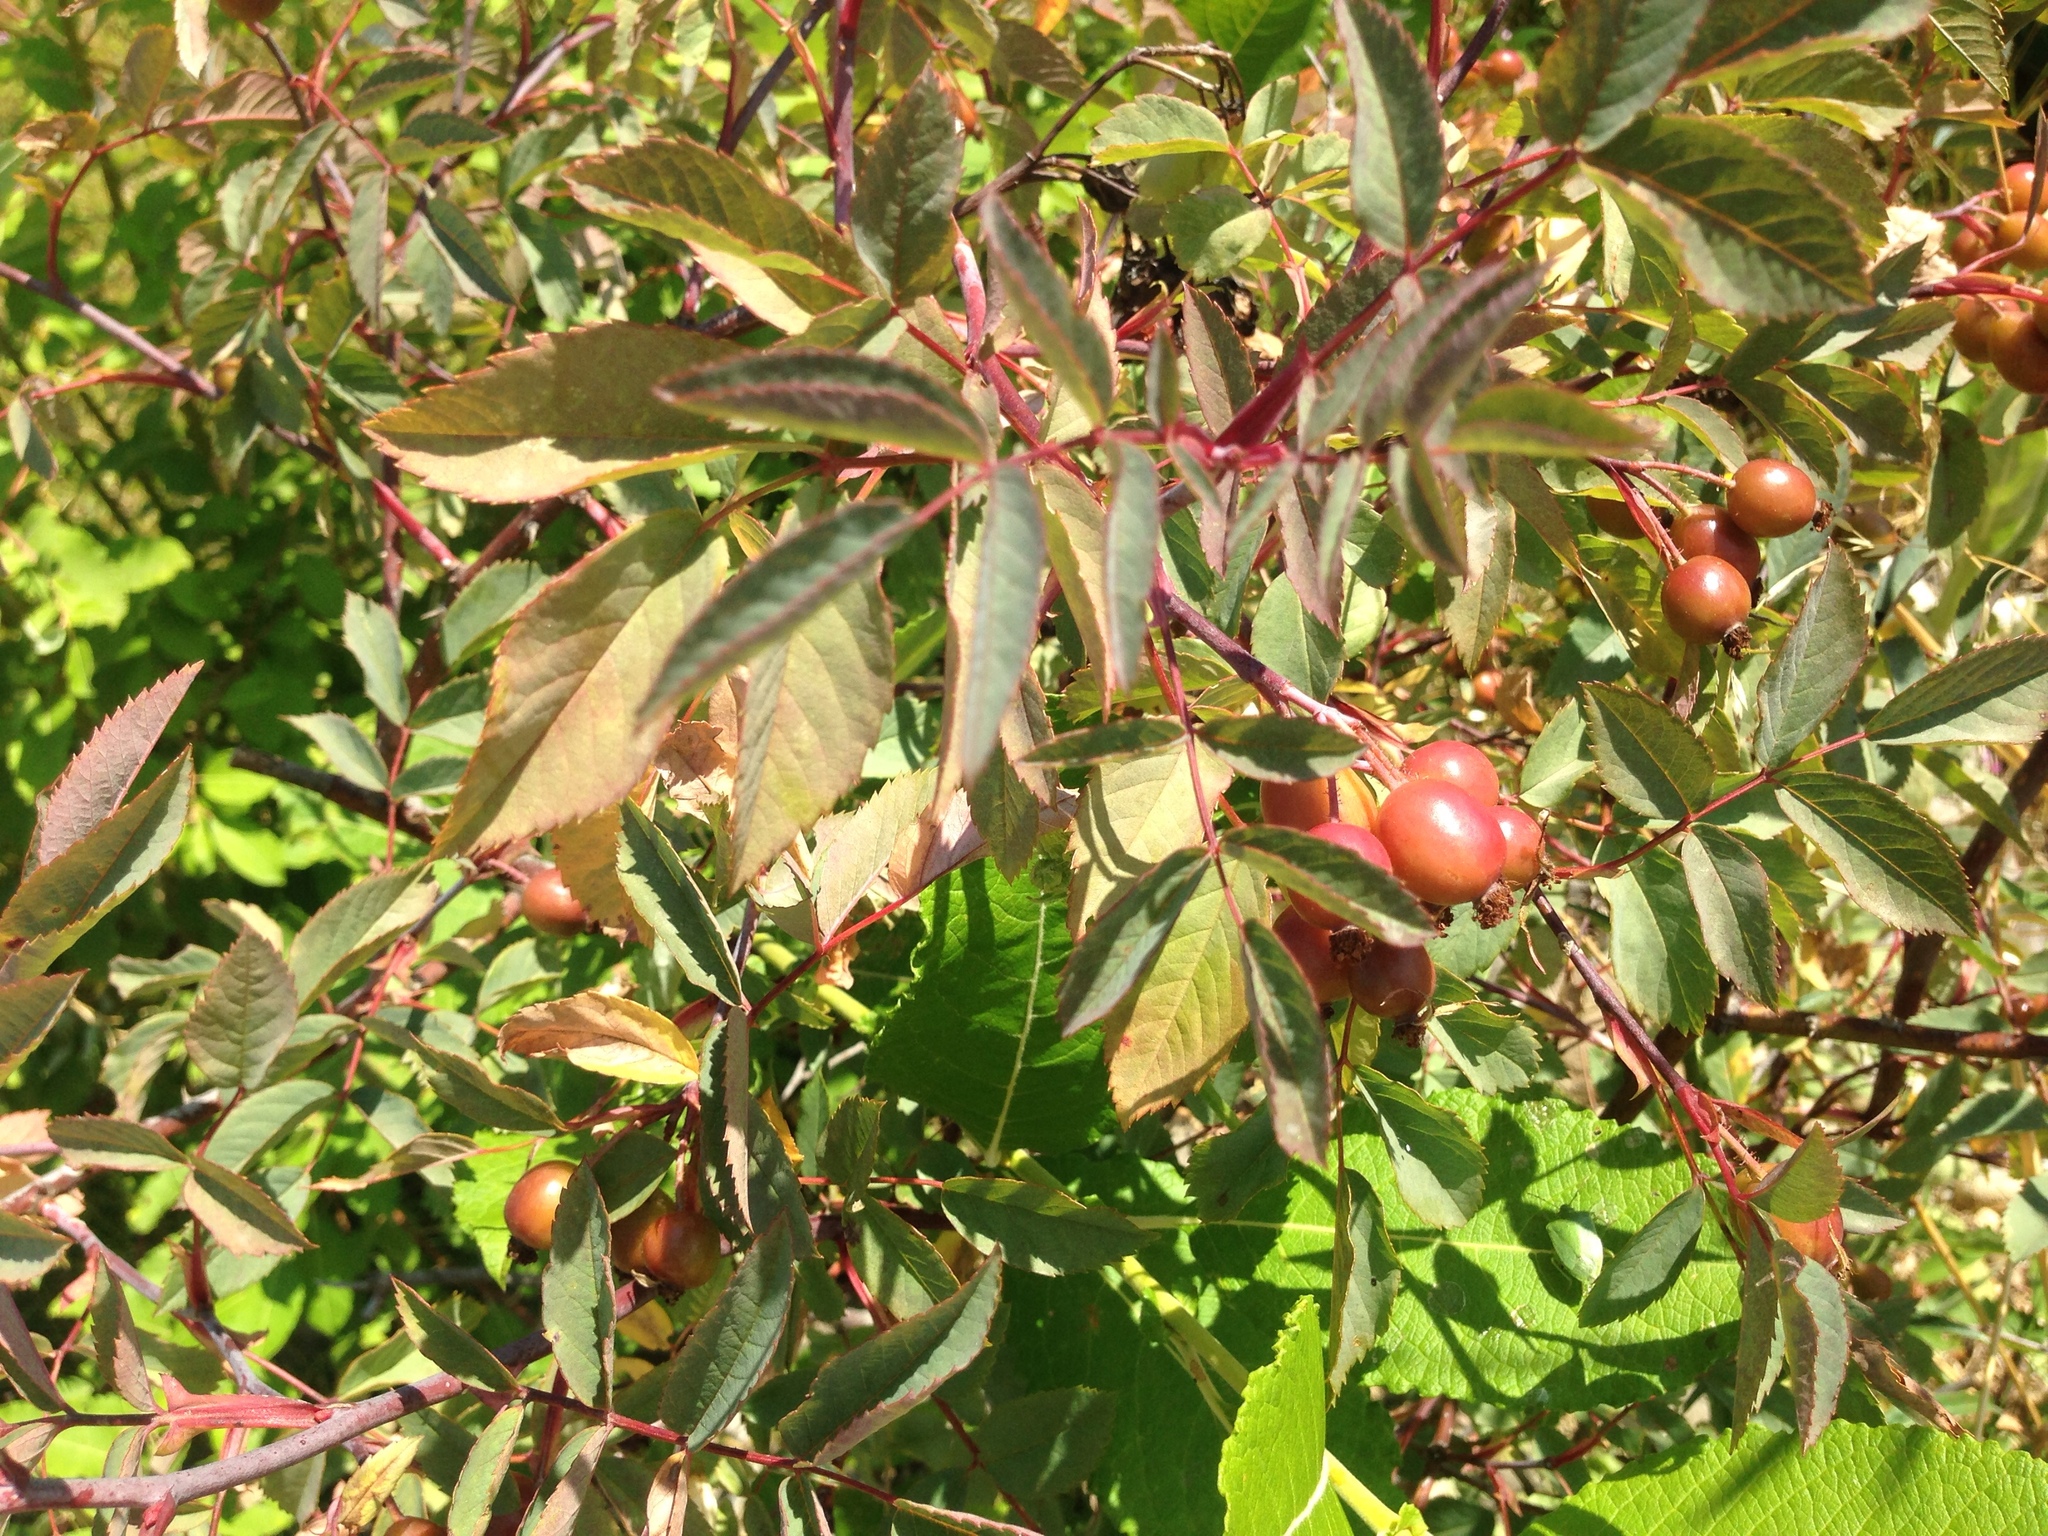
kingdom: Plantae
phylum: Tracheophyta
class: Magnoliopsida
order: Rosales
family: Rosaceae
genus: Rosa
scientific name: Rosa glauca
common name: Redleaf rose
